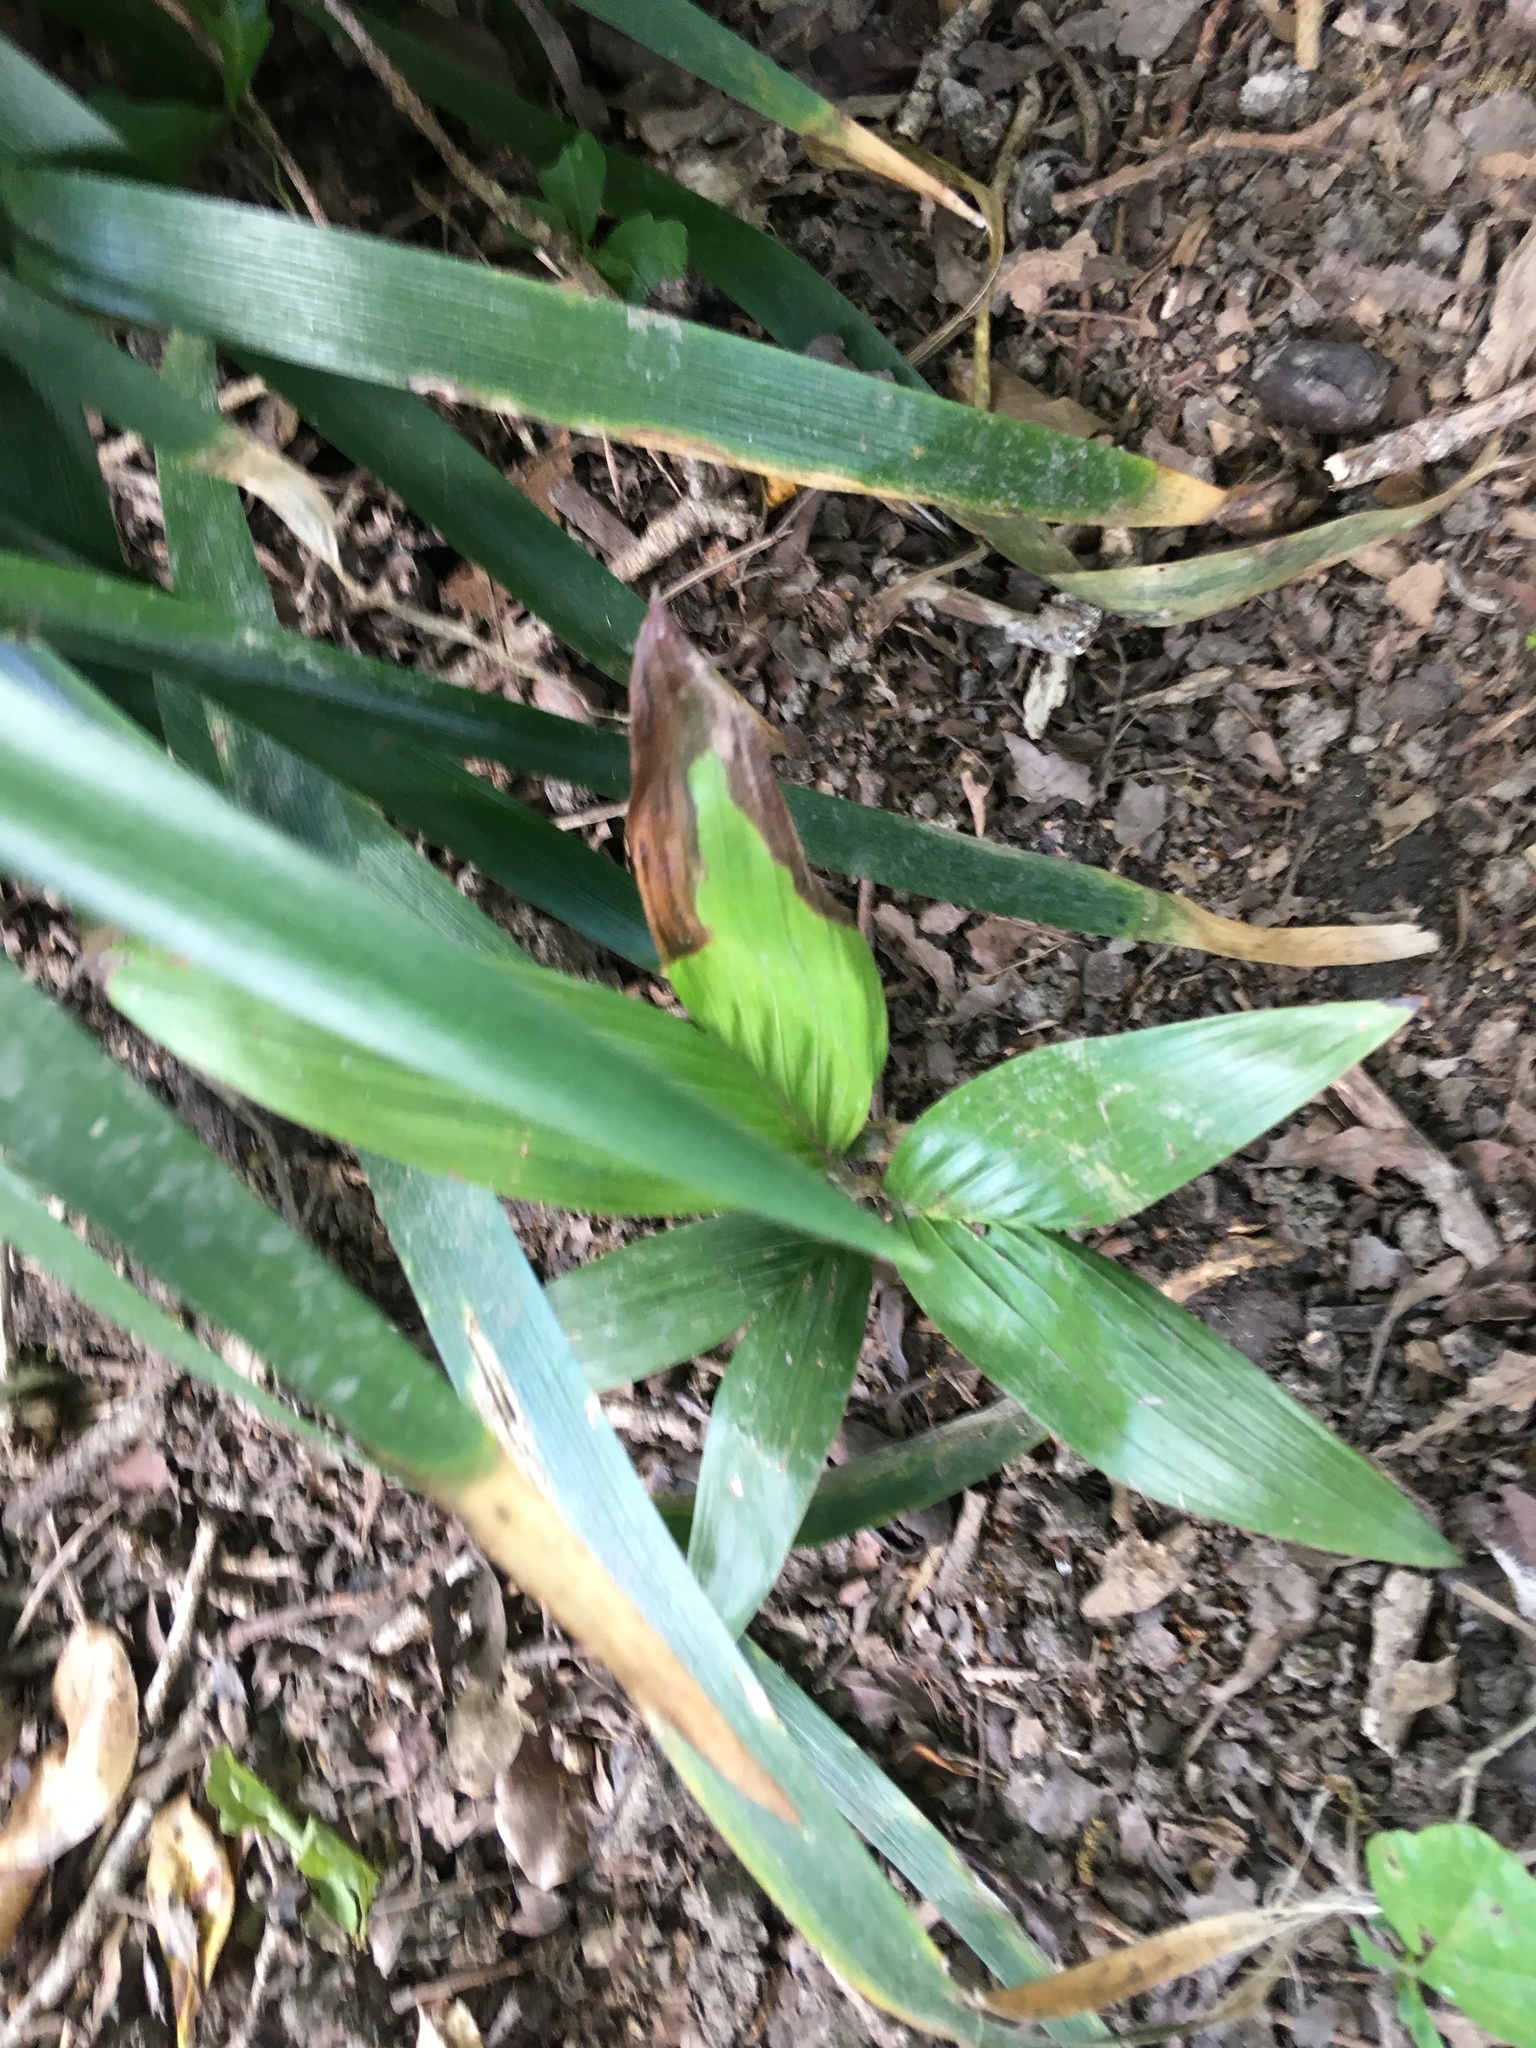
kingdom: Plantae
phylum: Tracheophyta
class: Liliopsida
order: Arecales
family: Arecaceae
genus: Archontophoenix
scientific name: Archontophoenix cunninghamiana
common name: Piccabeen bangalow palm
